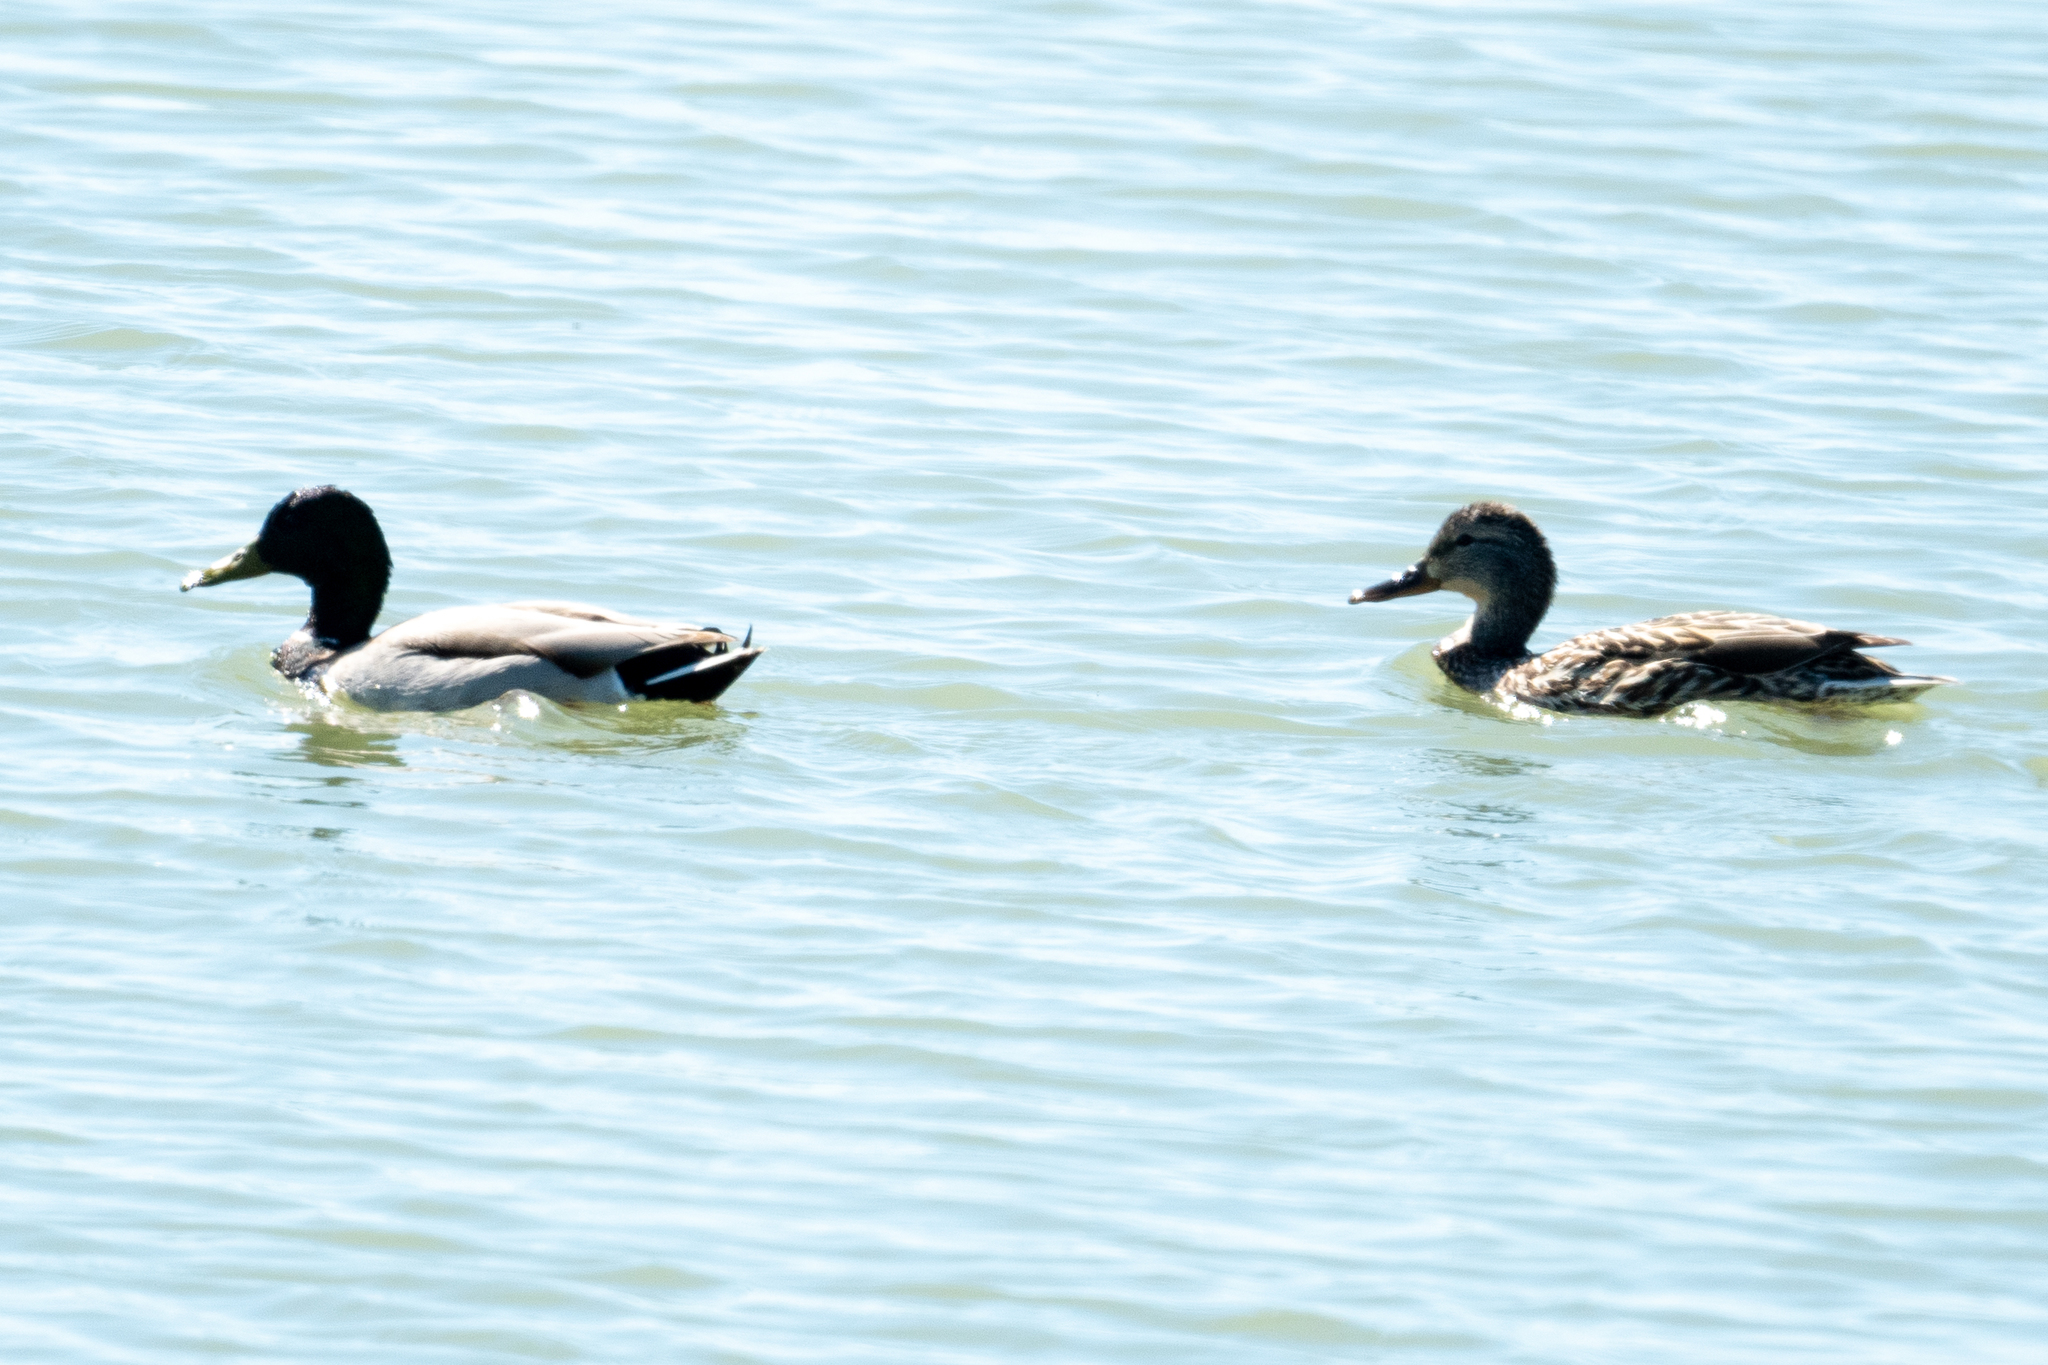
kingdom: Animalia
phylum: Chordata
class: Aves
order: Anseriformes
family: Anatidae
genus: Anas
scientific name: Anas platyrhynchos
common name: Mallard
